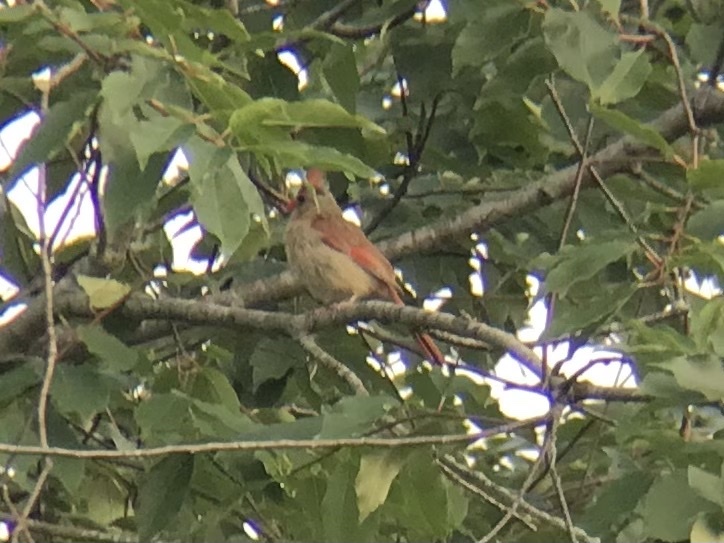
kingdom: Animalia
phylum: Chordata
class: Aves
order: Passeriformes
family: Cardinalidae
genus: Cardinalis
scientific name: Cardinalis cardinalis
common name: Northern cardinal
